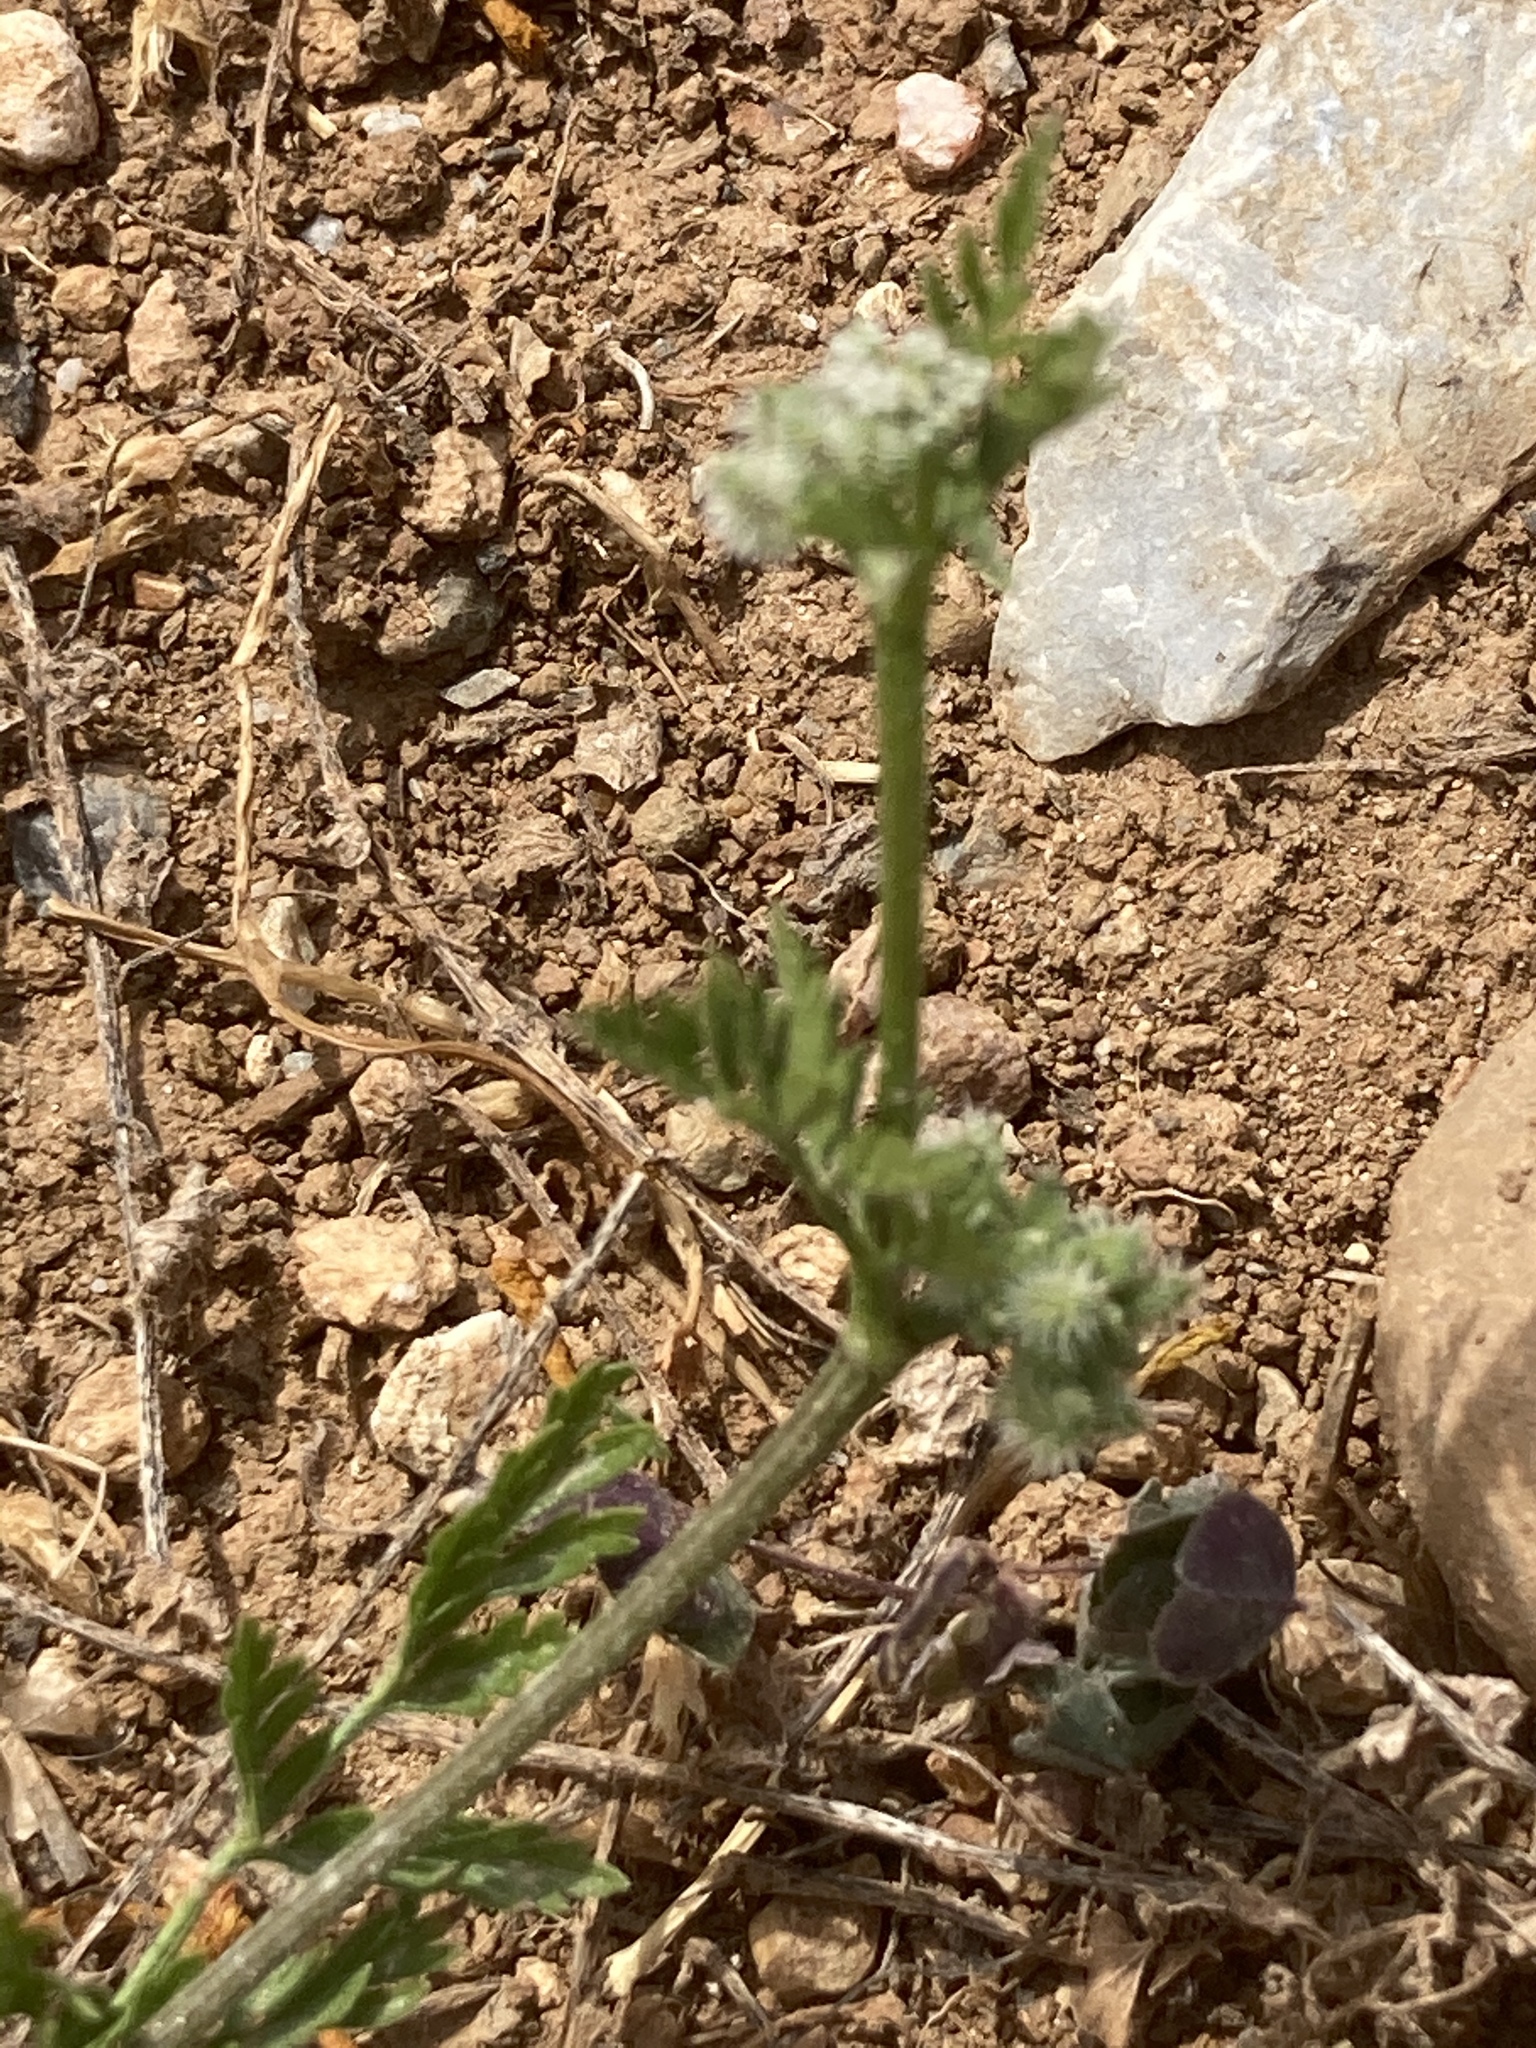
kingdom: Plantae
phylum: Tracheophyta
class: Magnoliopsida
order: Apiales
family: Apiaceae
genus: Torilis
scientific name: Torilis nodosa
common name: Knotted hedge-parsley
